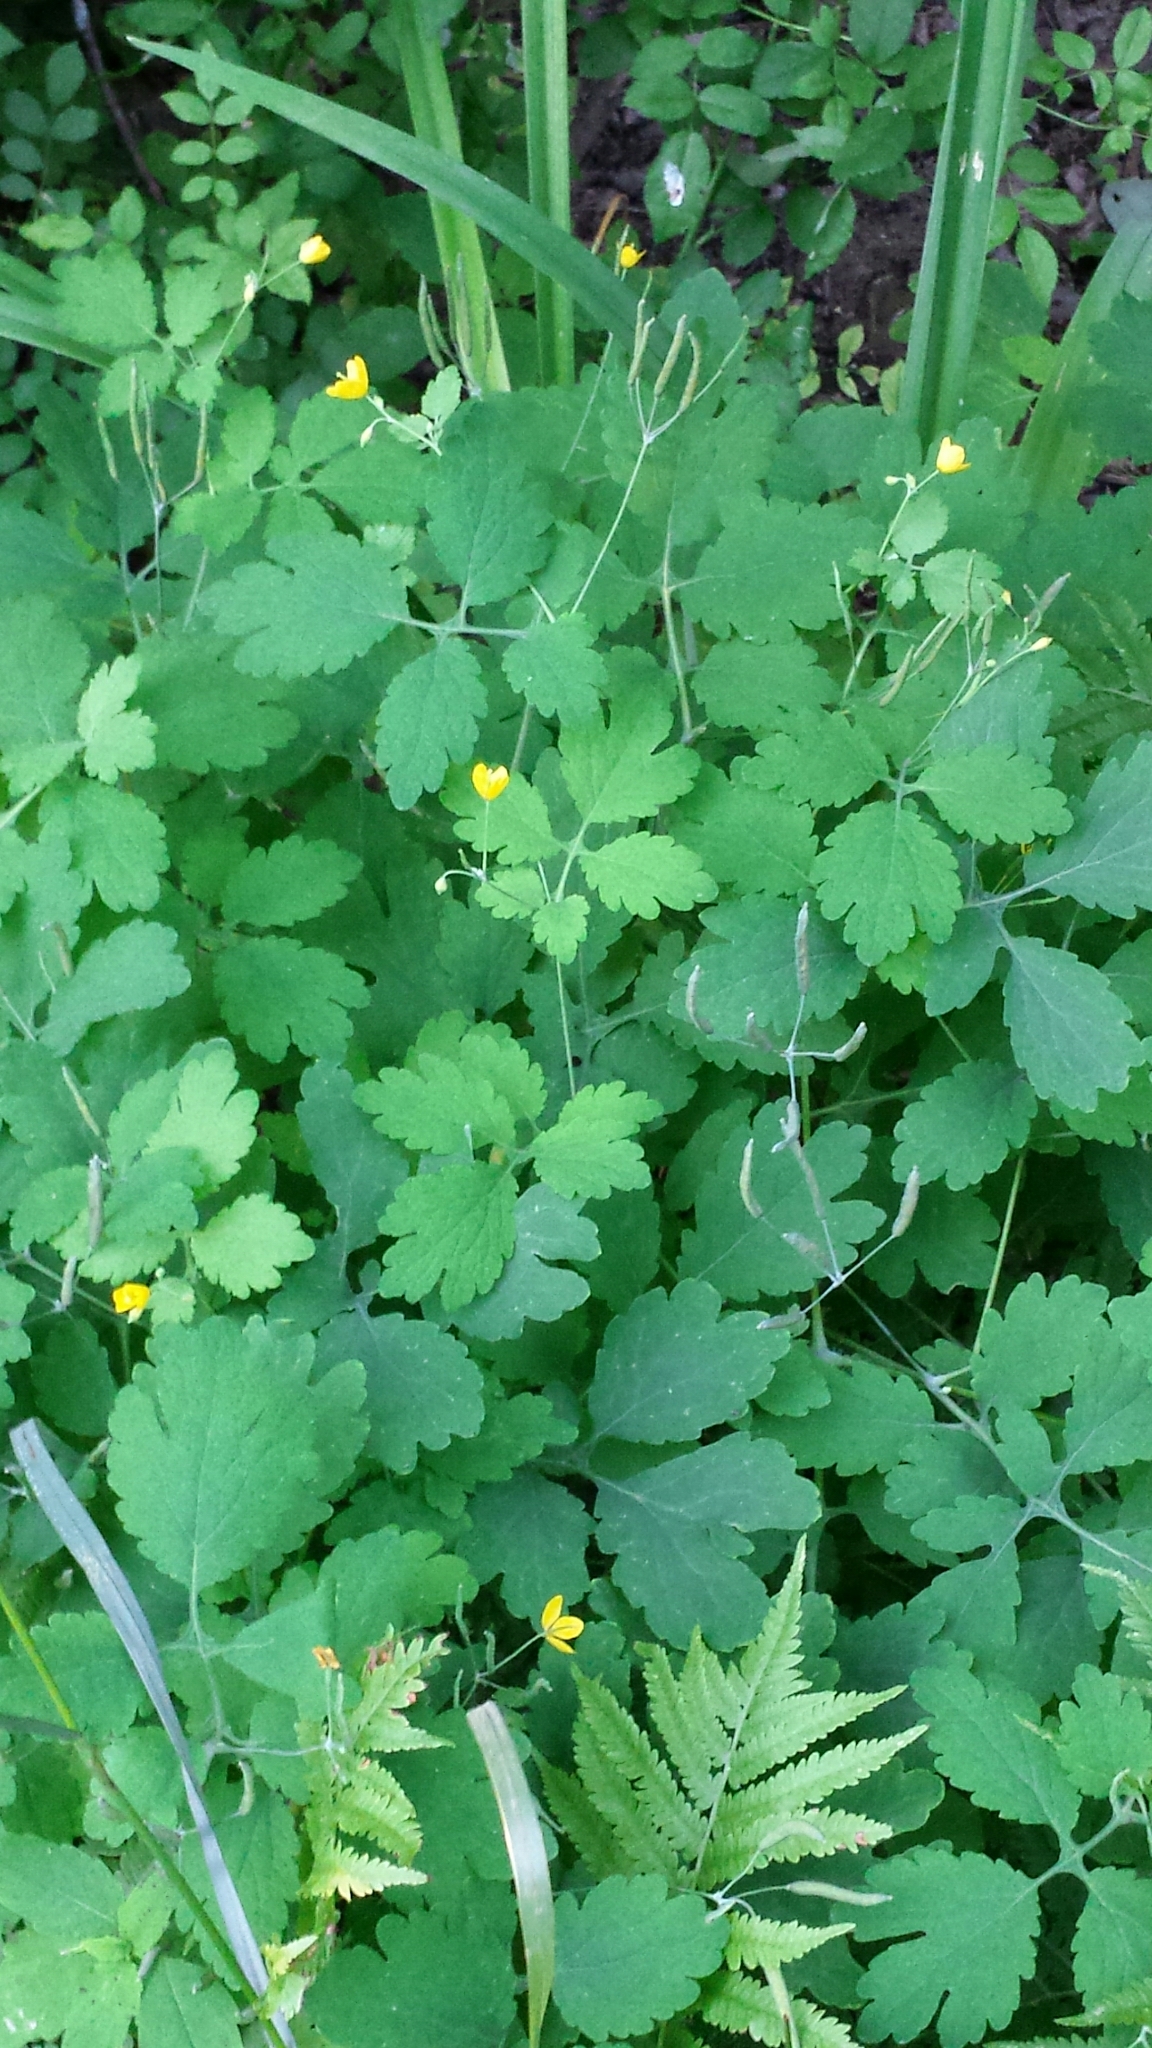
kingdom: Plantae
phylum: Tracheophyta
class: Magnoliopsida
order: Ranunculales
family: Papaveraceae
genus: Chelidonium
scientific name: Chelidonium majus
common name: Greater celandine
